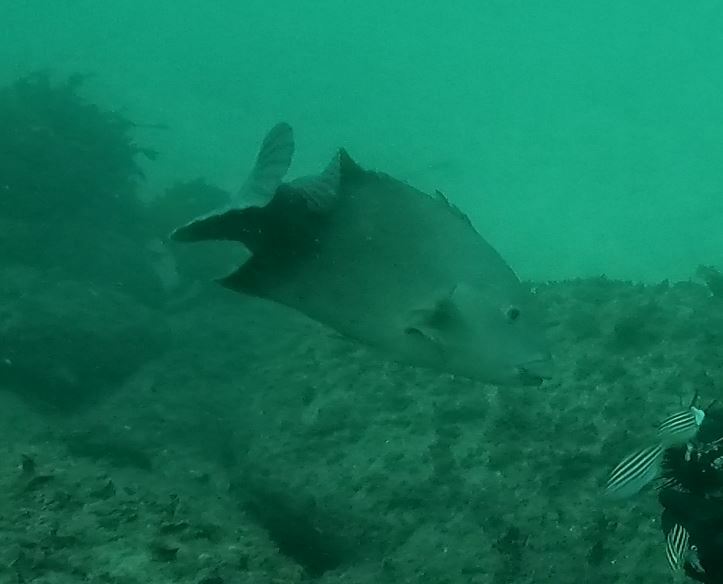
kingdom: Animalia
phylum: Chordata
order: Perciformes
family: Labridae
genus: Achoerodus
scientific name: Achoerodus viridis
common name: Brown groper
